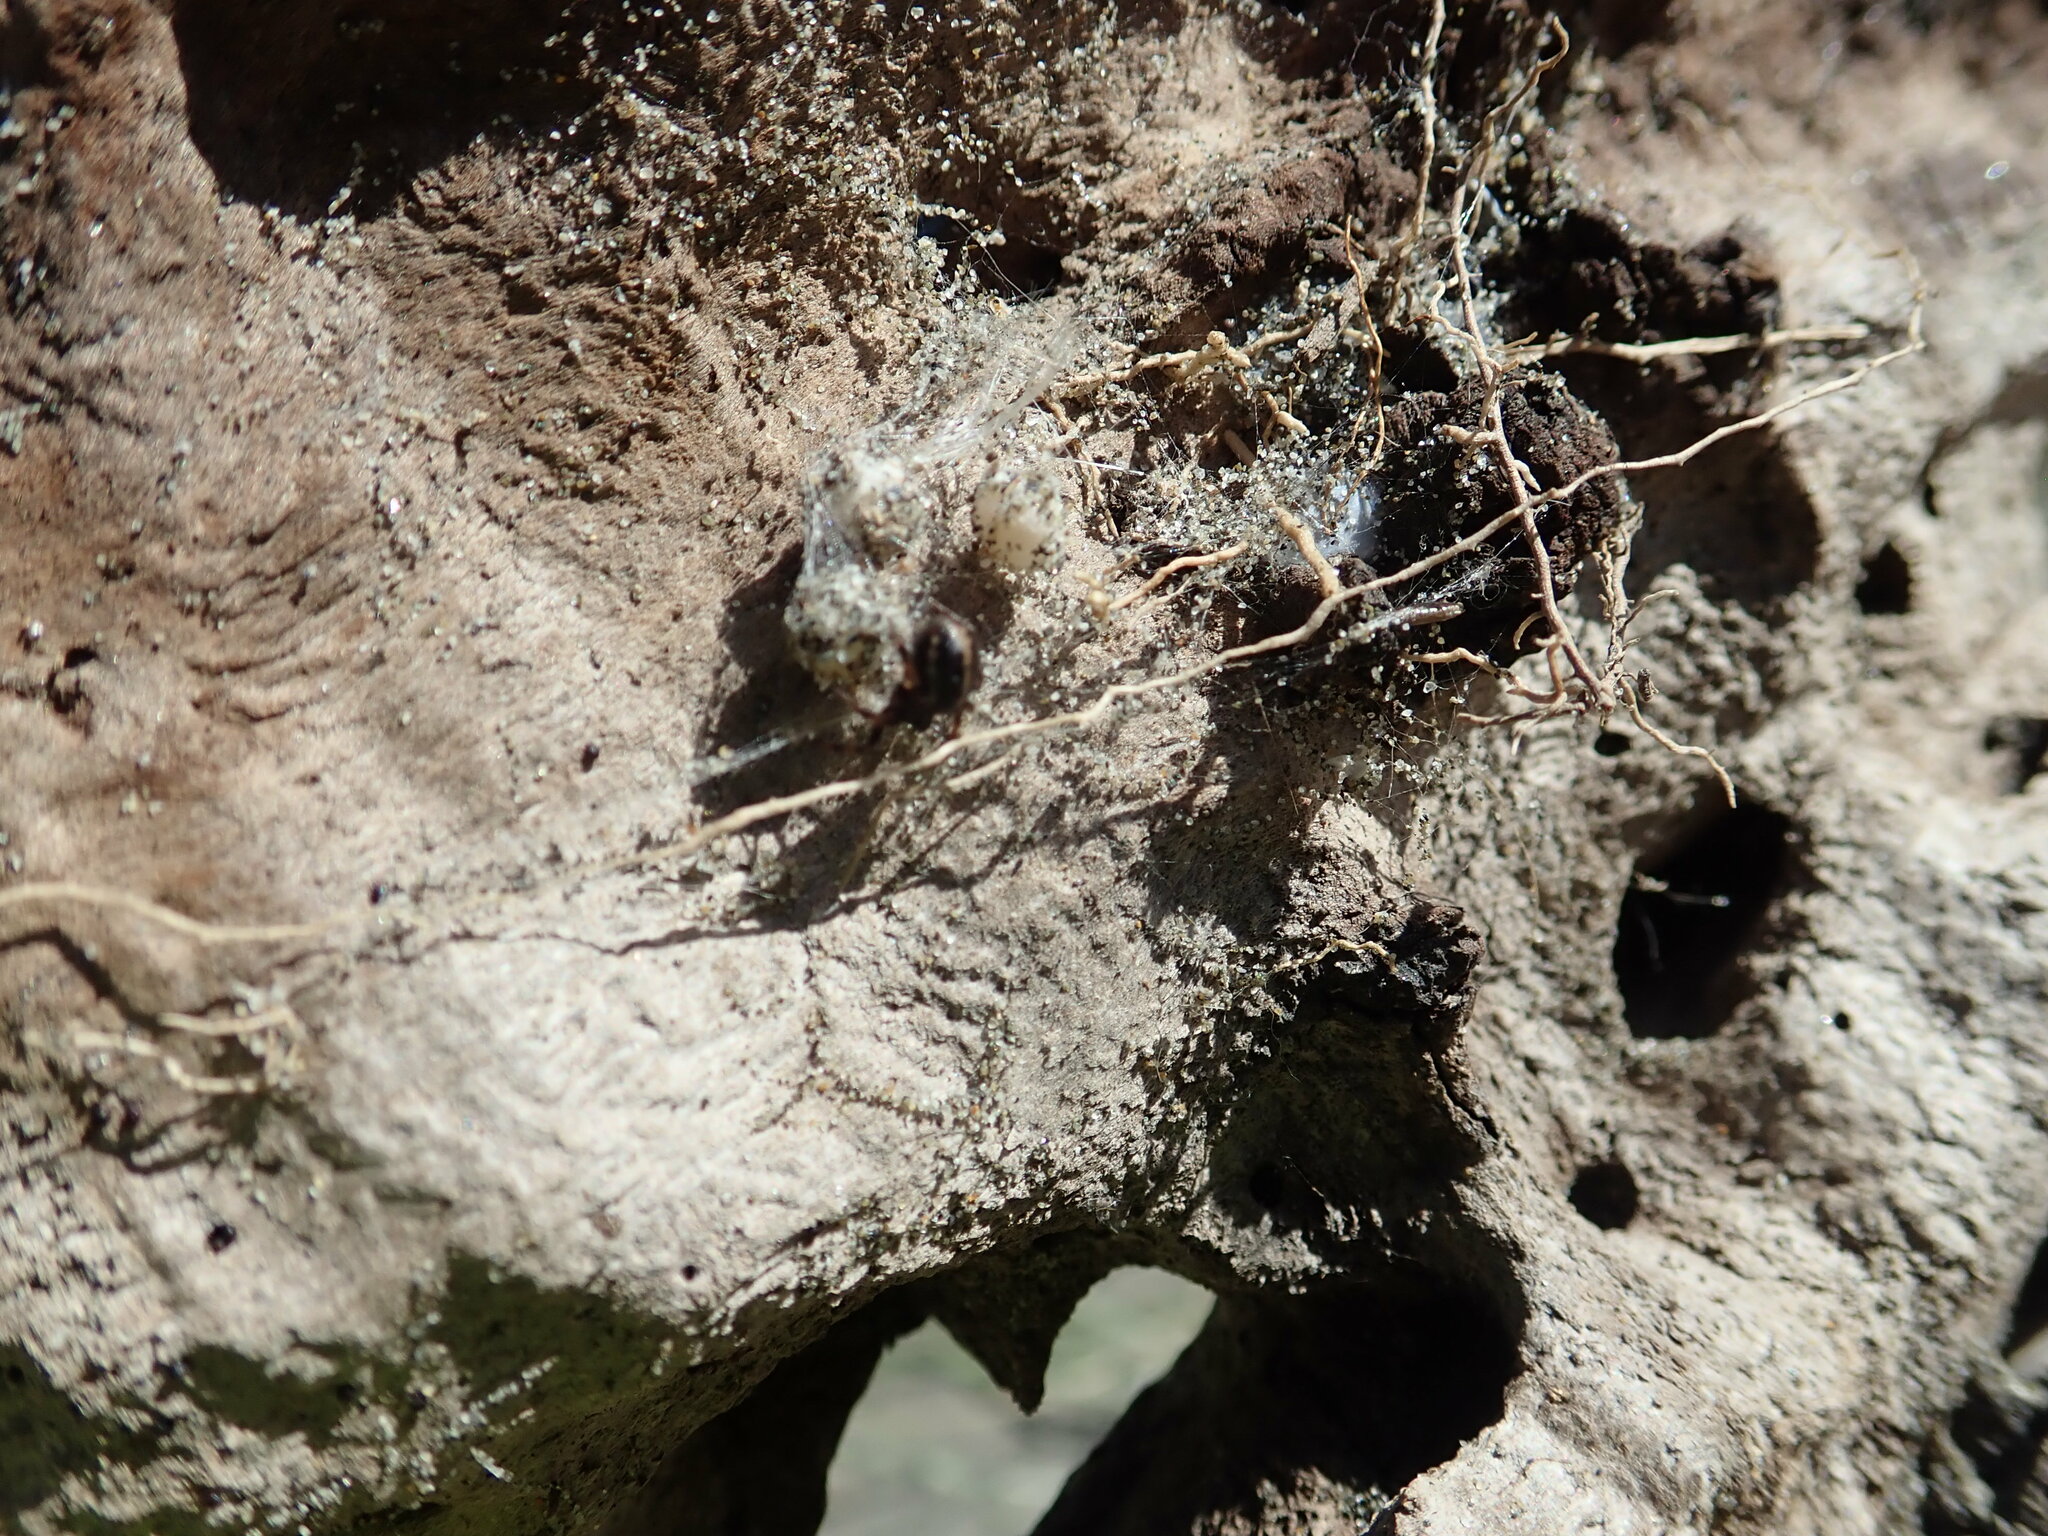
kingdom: Animalia
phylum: Arthropoda
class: Arachnida
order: Araneae
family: Theridiidae
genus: Steatoda
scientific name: Steatoda lepida
